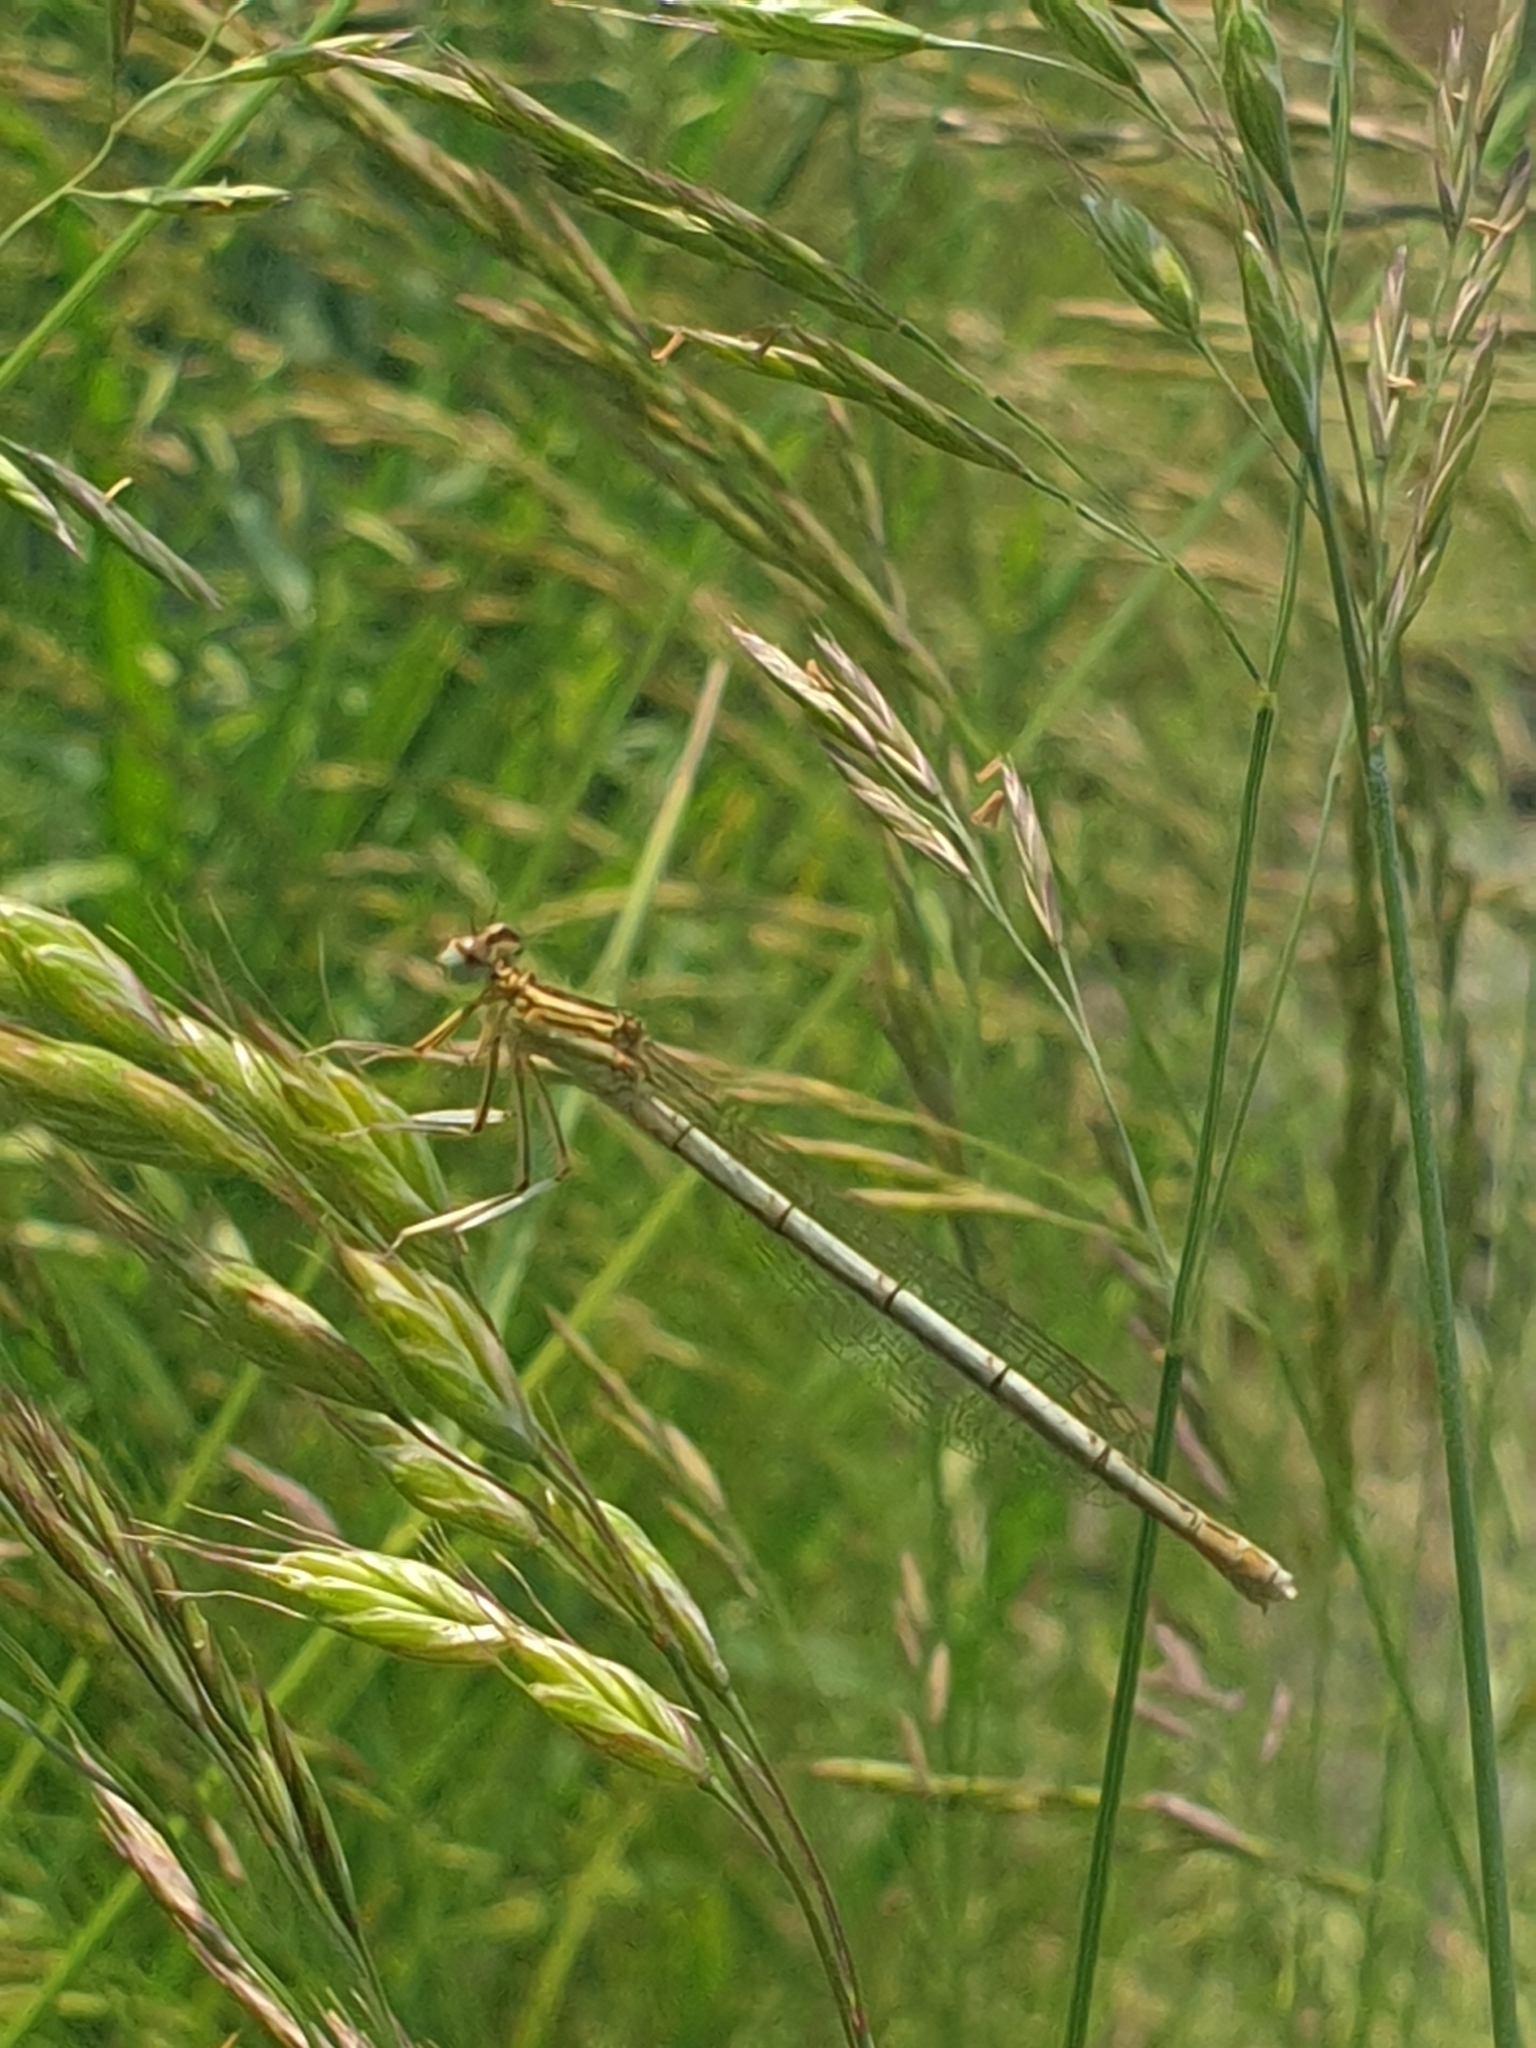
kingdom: Animalia
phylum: Arthropoda
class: Insecta
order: Odonata
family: Platycnemididae
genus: Platycnemis
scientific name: Platycnemis pennipes
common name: White-legged damselfly
